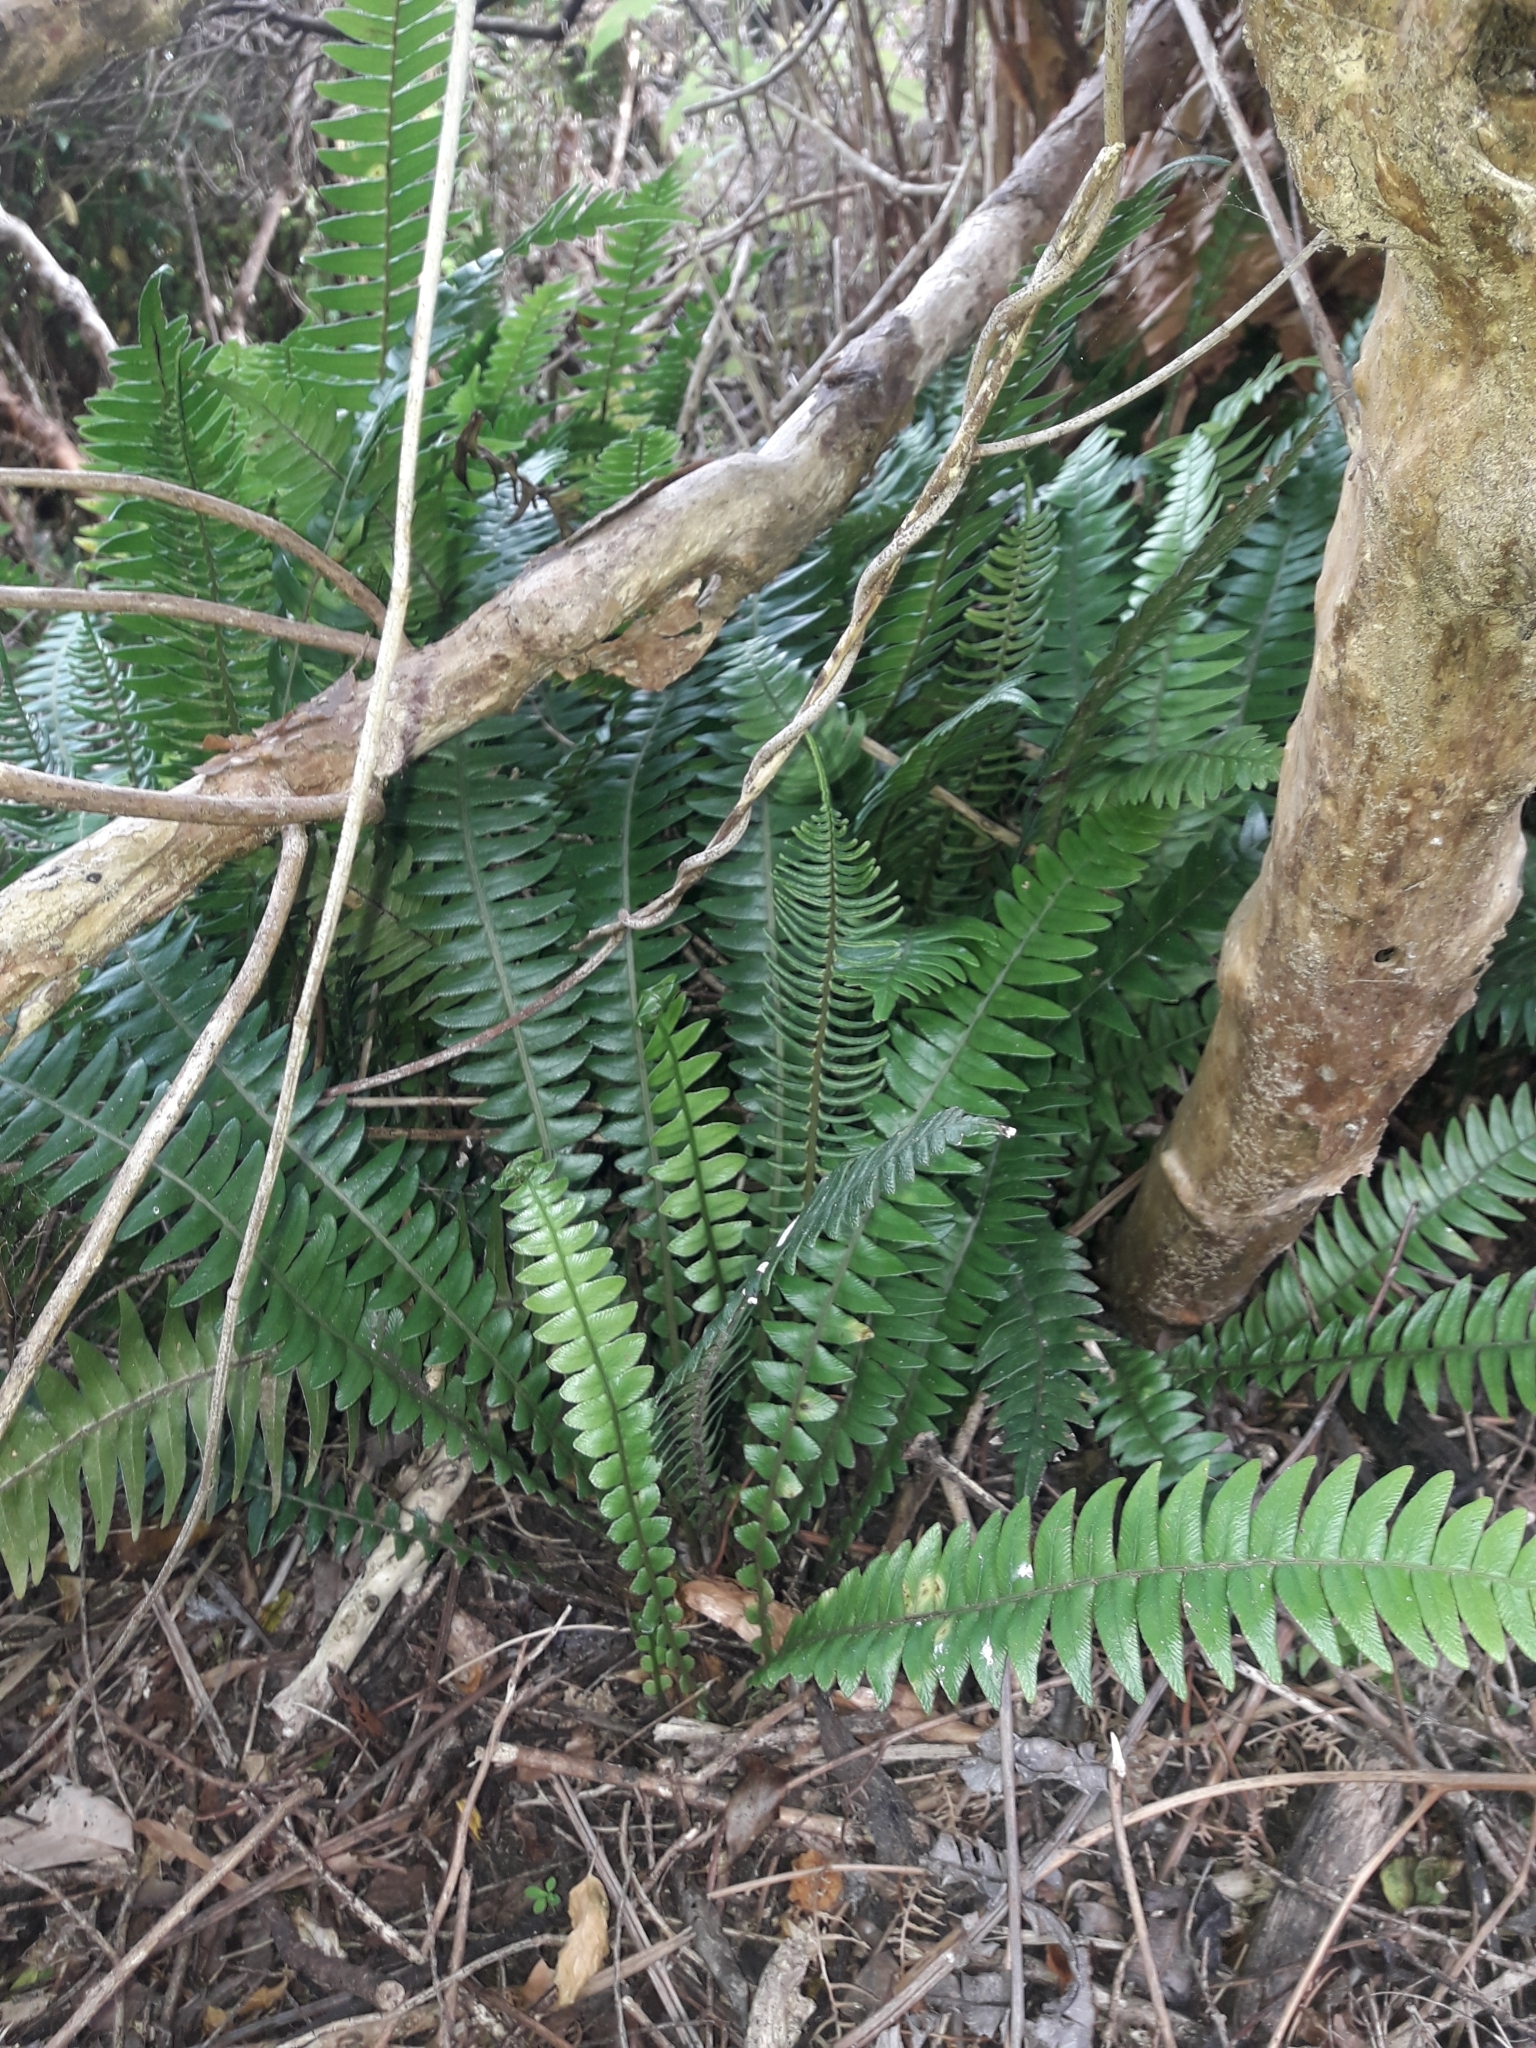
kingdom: Plantae
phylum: Tracheophyta
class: Polypodiopsida
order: Polypodiales
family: Blechnaceae
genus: Austroblechnum
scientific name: Austroblechnum durum
